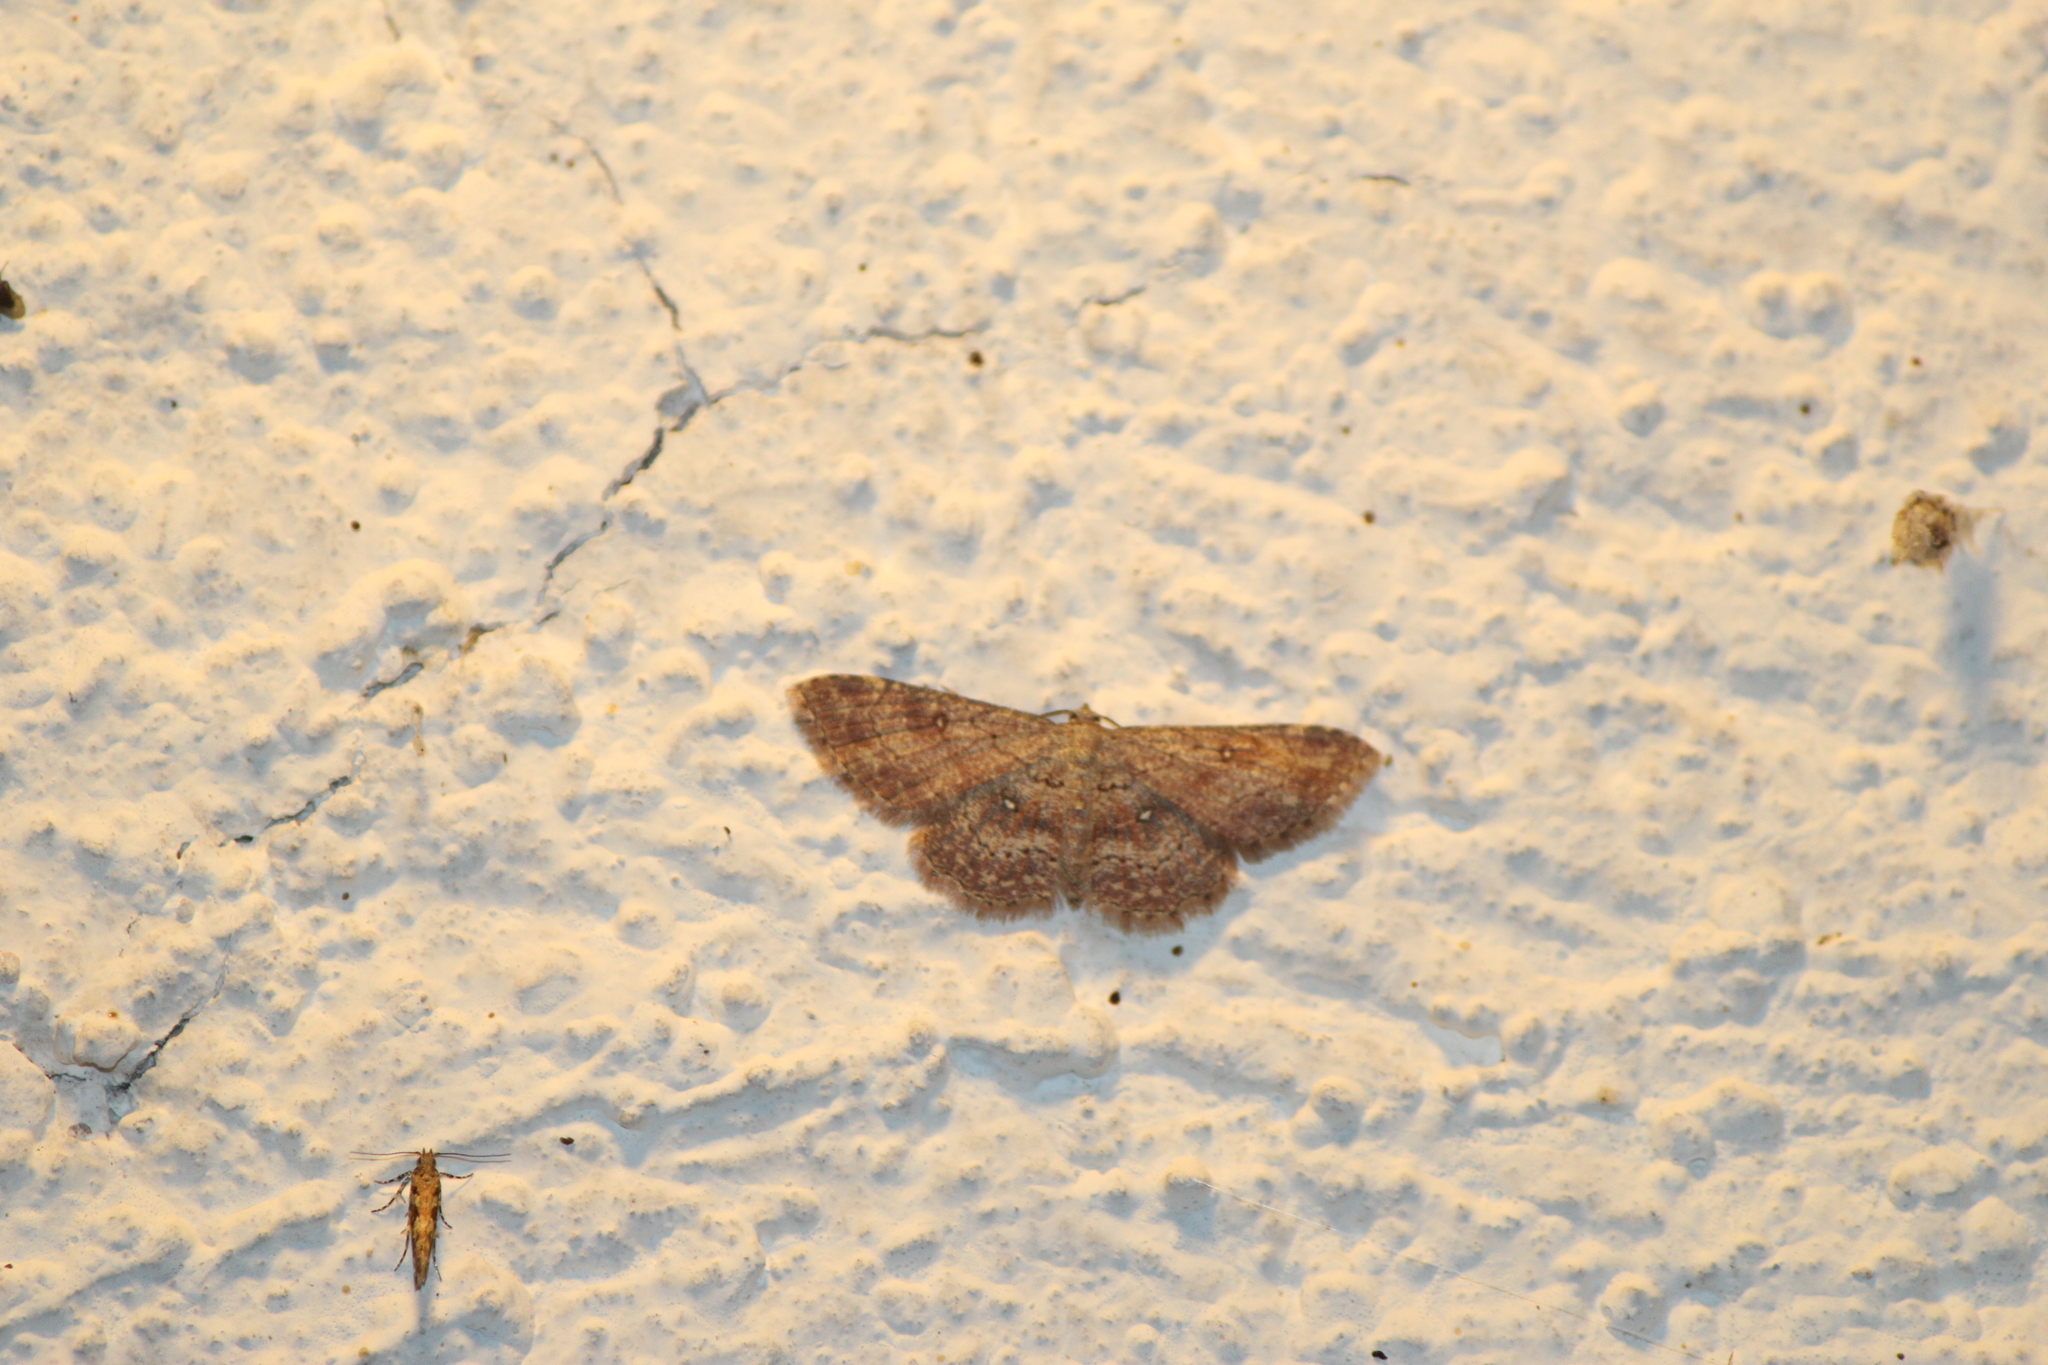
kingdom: Animalia
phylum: Arthropoda
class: Insecta
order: Lepidoptera
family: Geometridae
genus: Cyclophora
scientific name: Cyclophora nanaria
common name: Cankerworm
